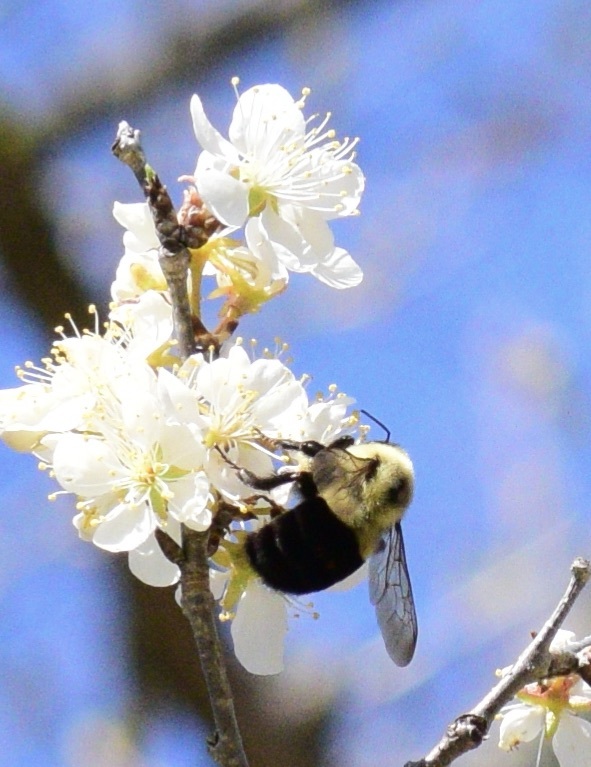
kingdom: Animalia
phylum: Arthropoda
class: Insecta
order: Hymenoptera
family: Apidae
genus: Bombus
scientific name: Bombus impatiens
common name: Common eastern bumble bee
